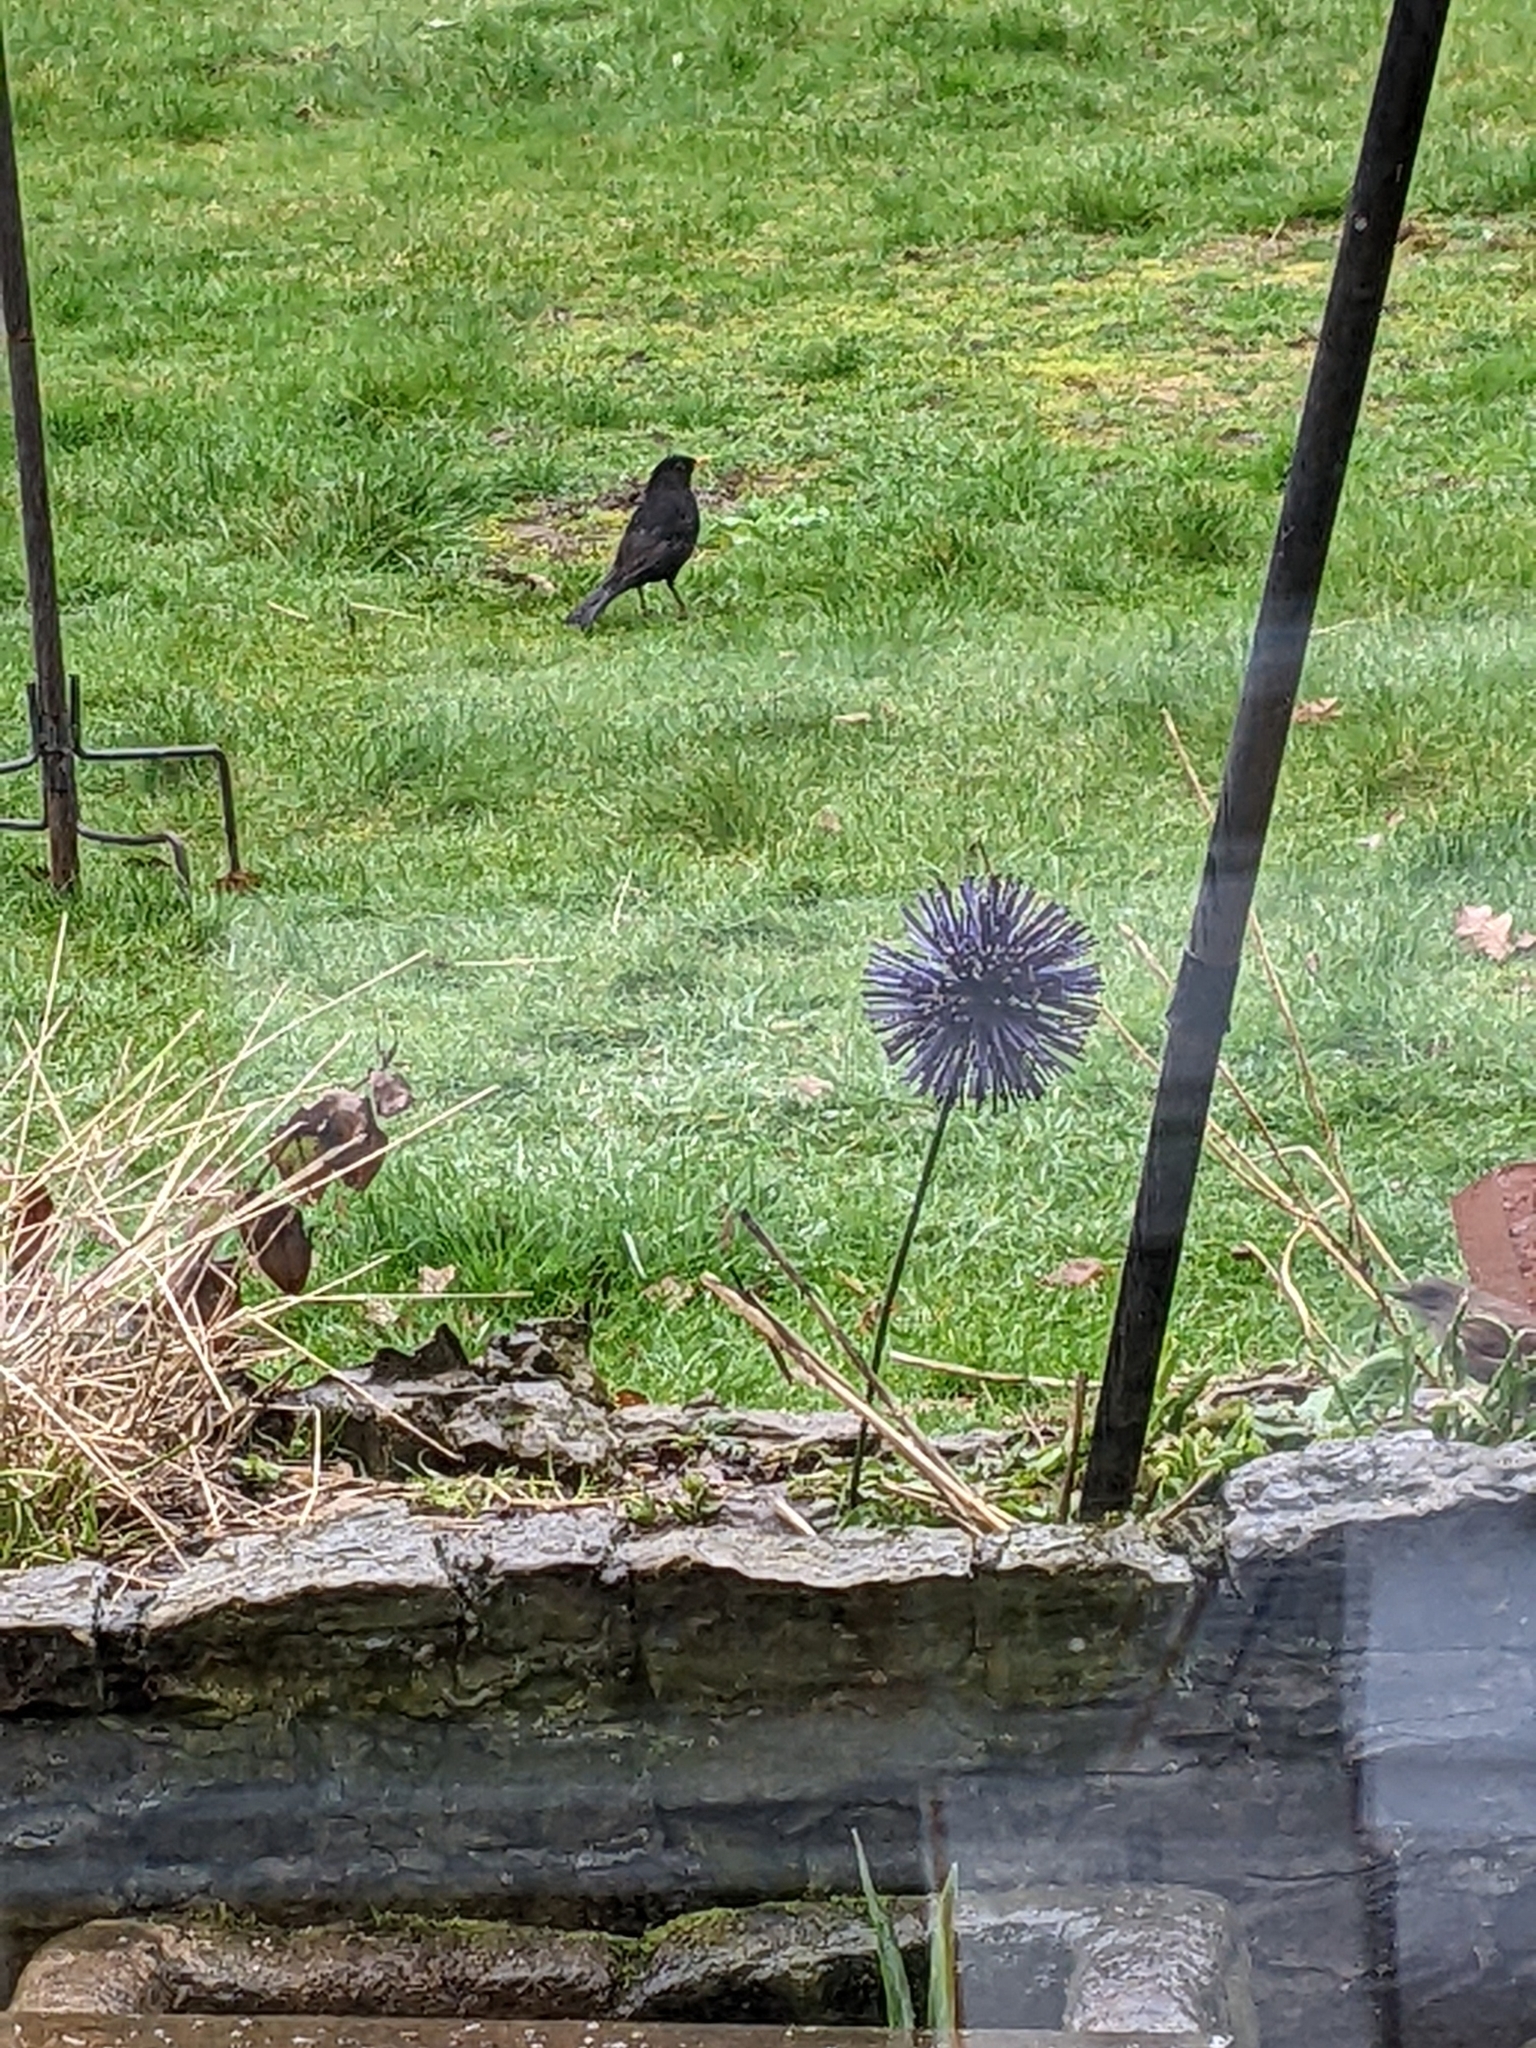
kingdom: Animalia
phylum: Chordata
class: Aves
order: Passeriformes
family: Turdidae
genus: Turdus
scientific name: Turdus merula
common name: Common blackbird
